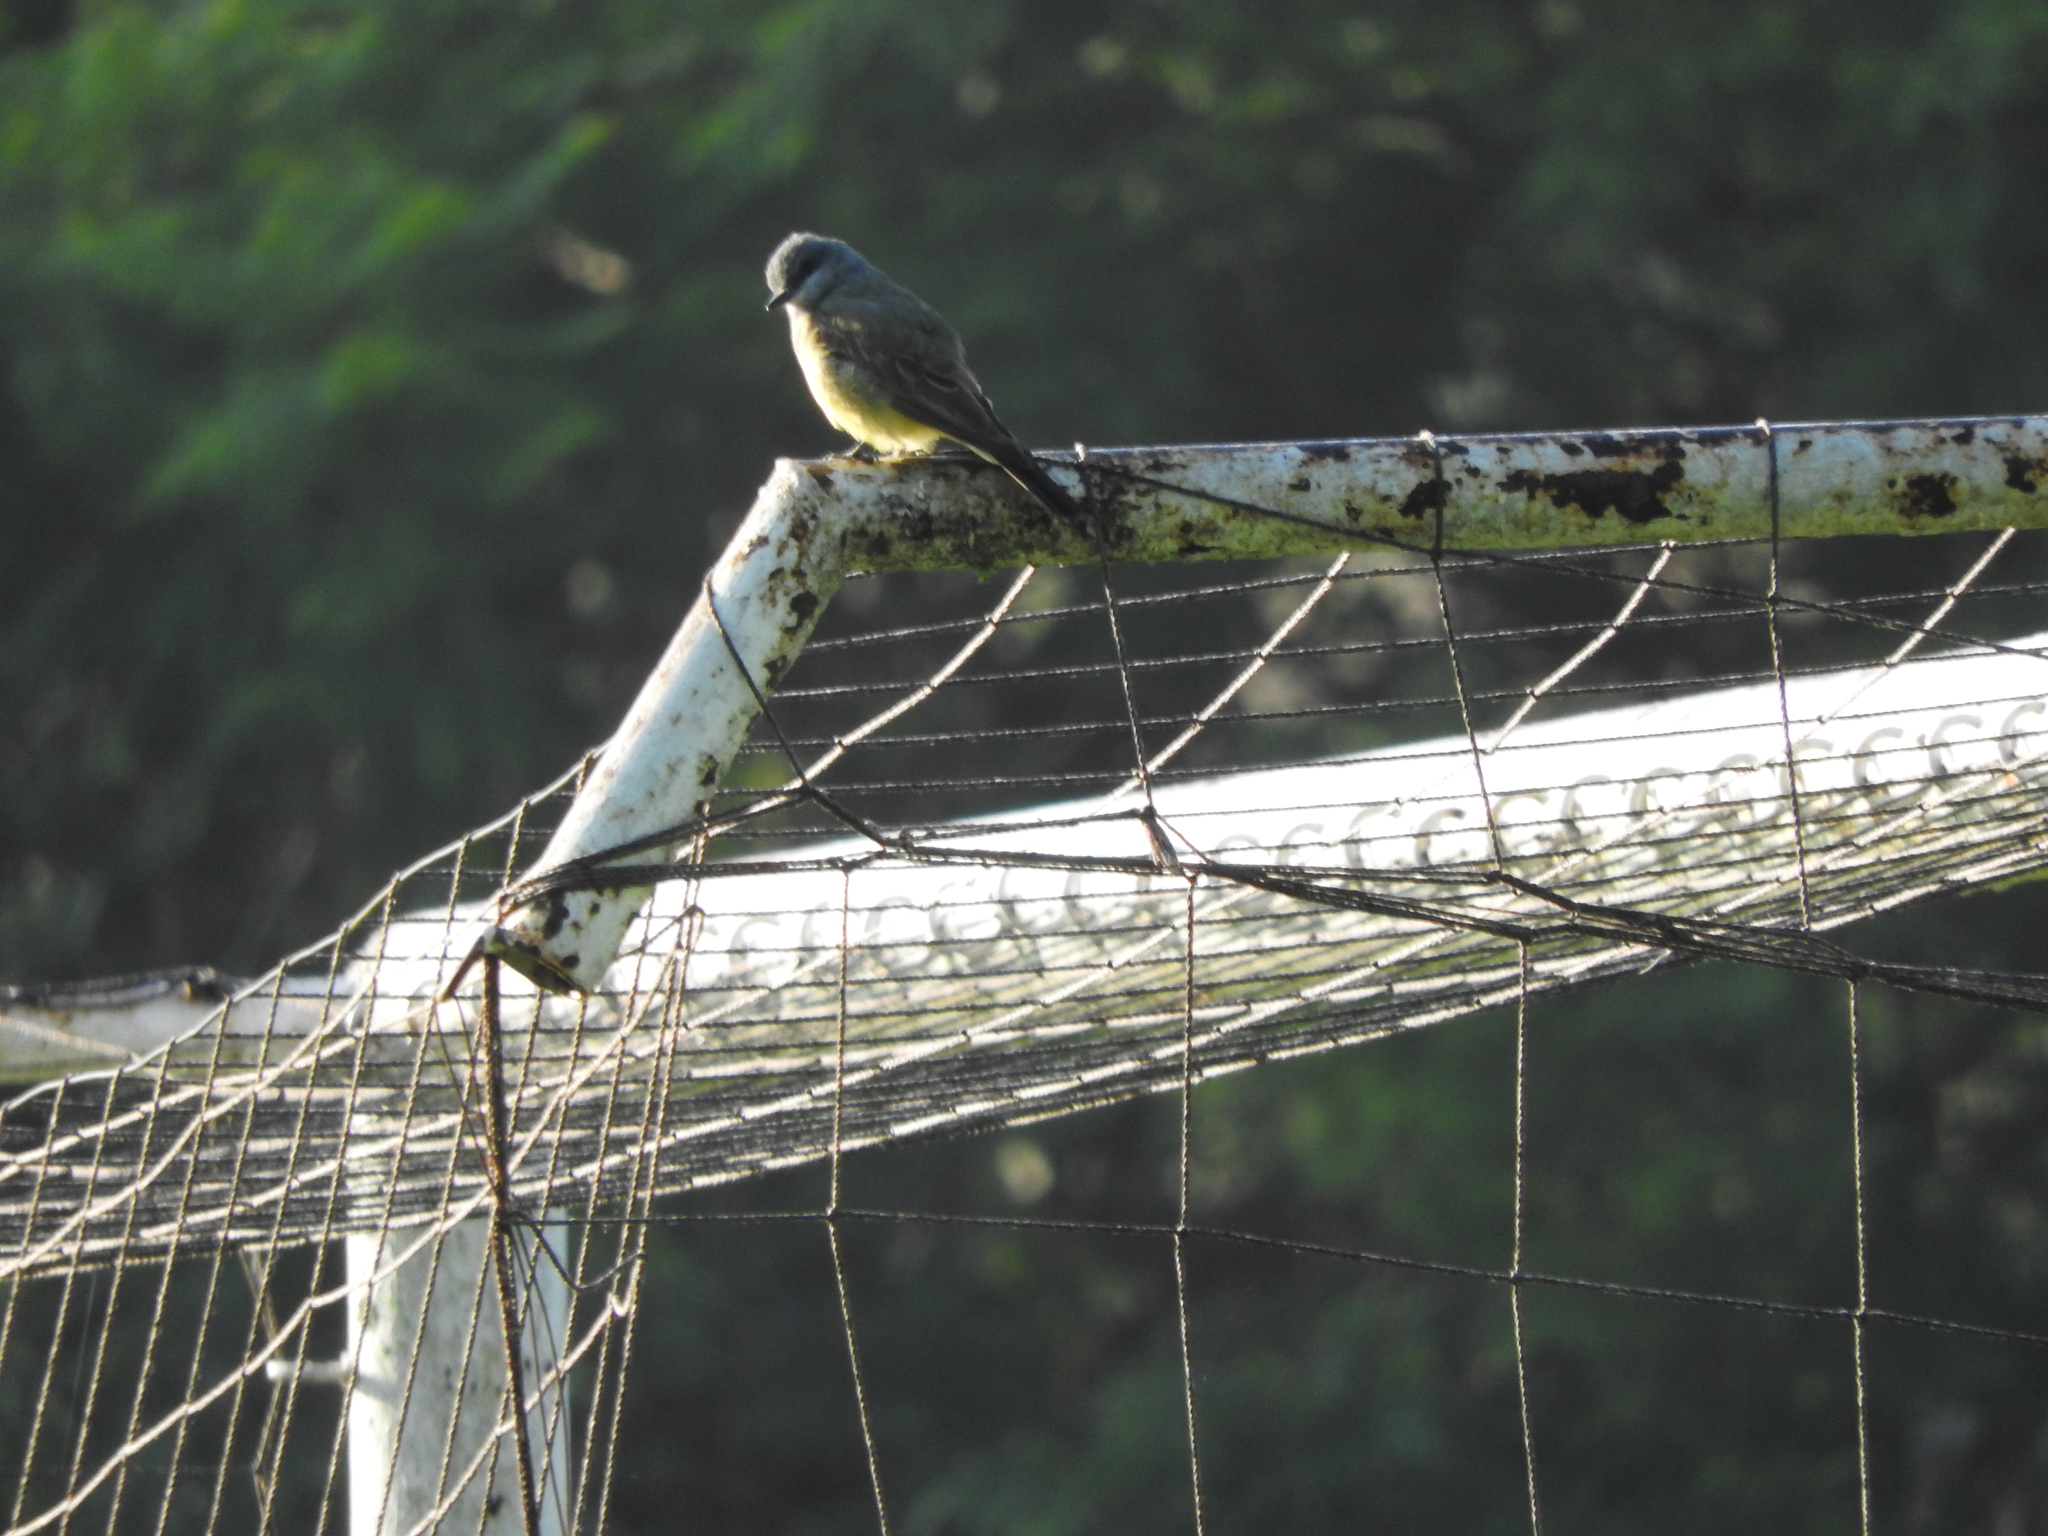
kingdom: Animalia
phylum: Chordata
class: Aves
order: Passeriformes
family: Tyrannidae
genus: Tyrannus
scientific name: Tyrannus melancholicus
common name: Tropical kingbird
